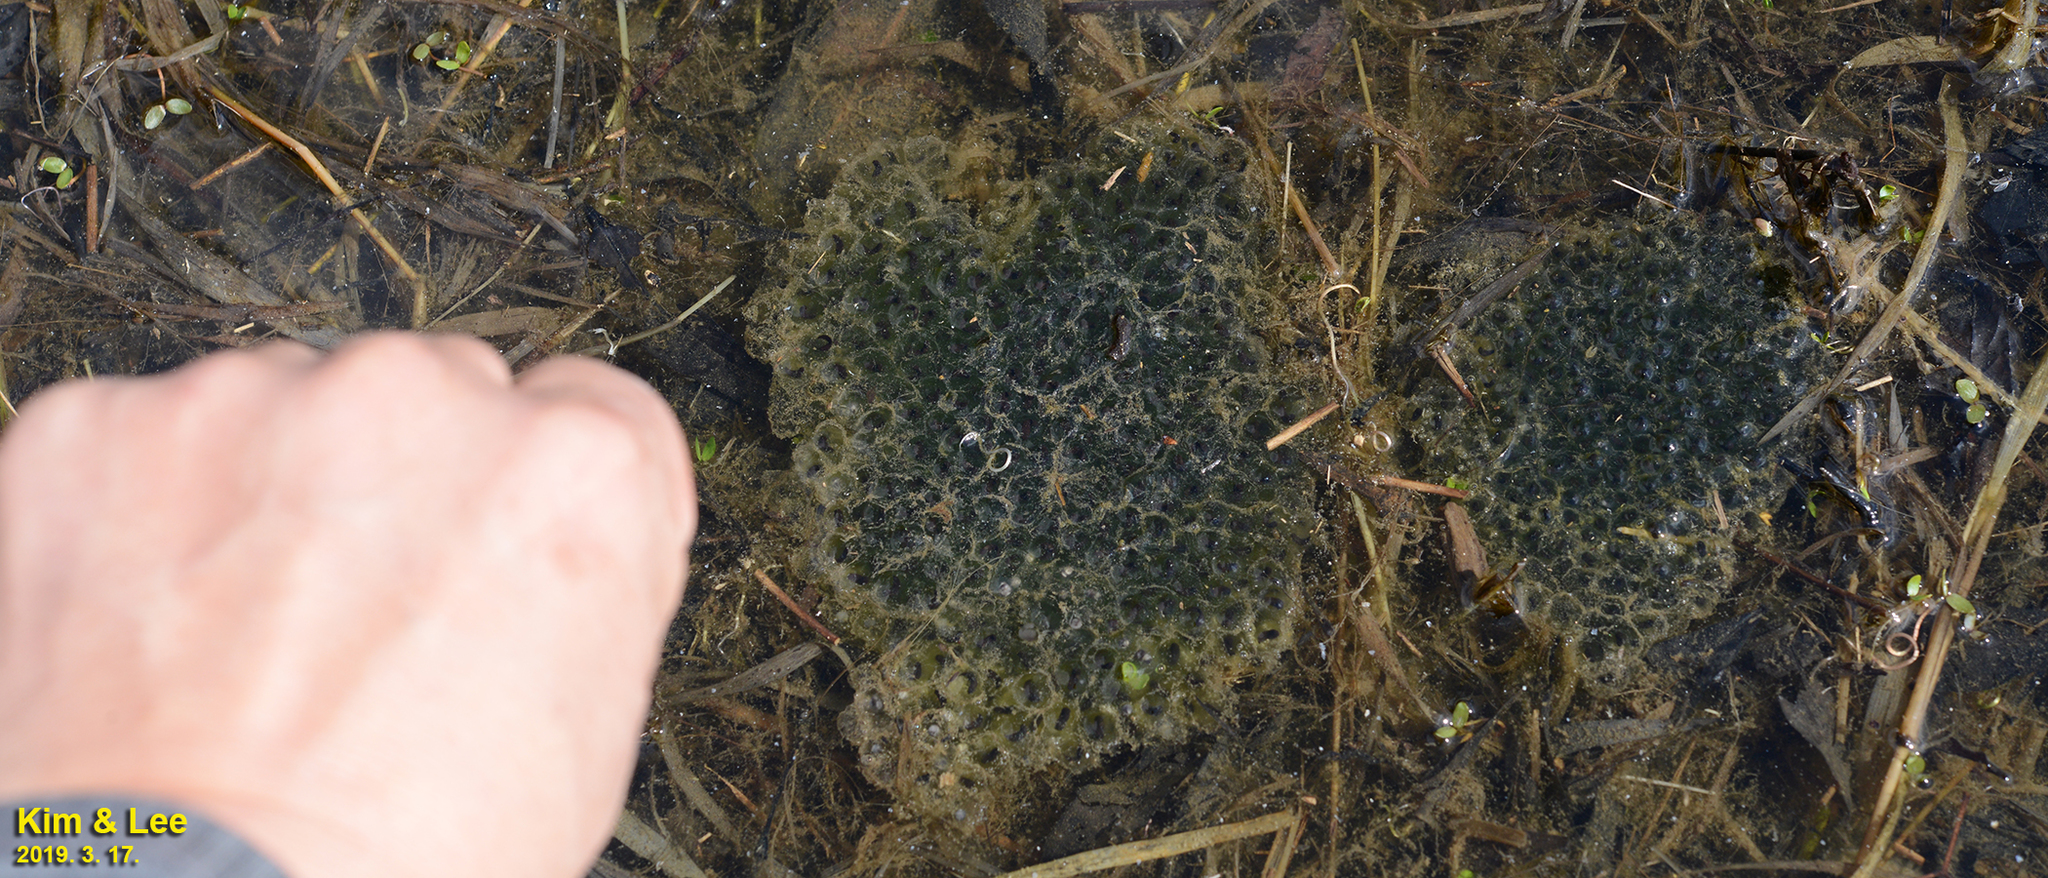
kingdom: Animalia
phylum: Chordata
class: Amphibia
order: Anura
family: Ranidae
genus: Rana
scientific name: Rana coreana
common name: Korean brown frog
